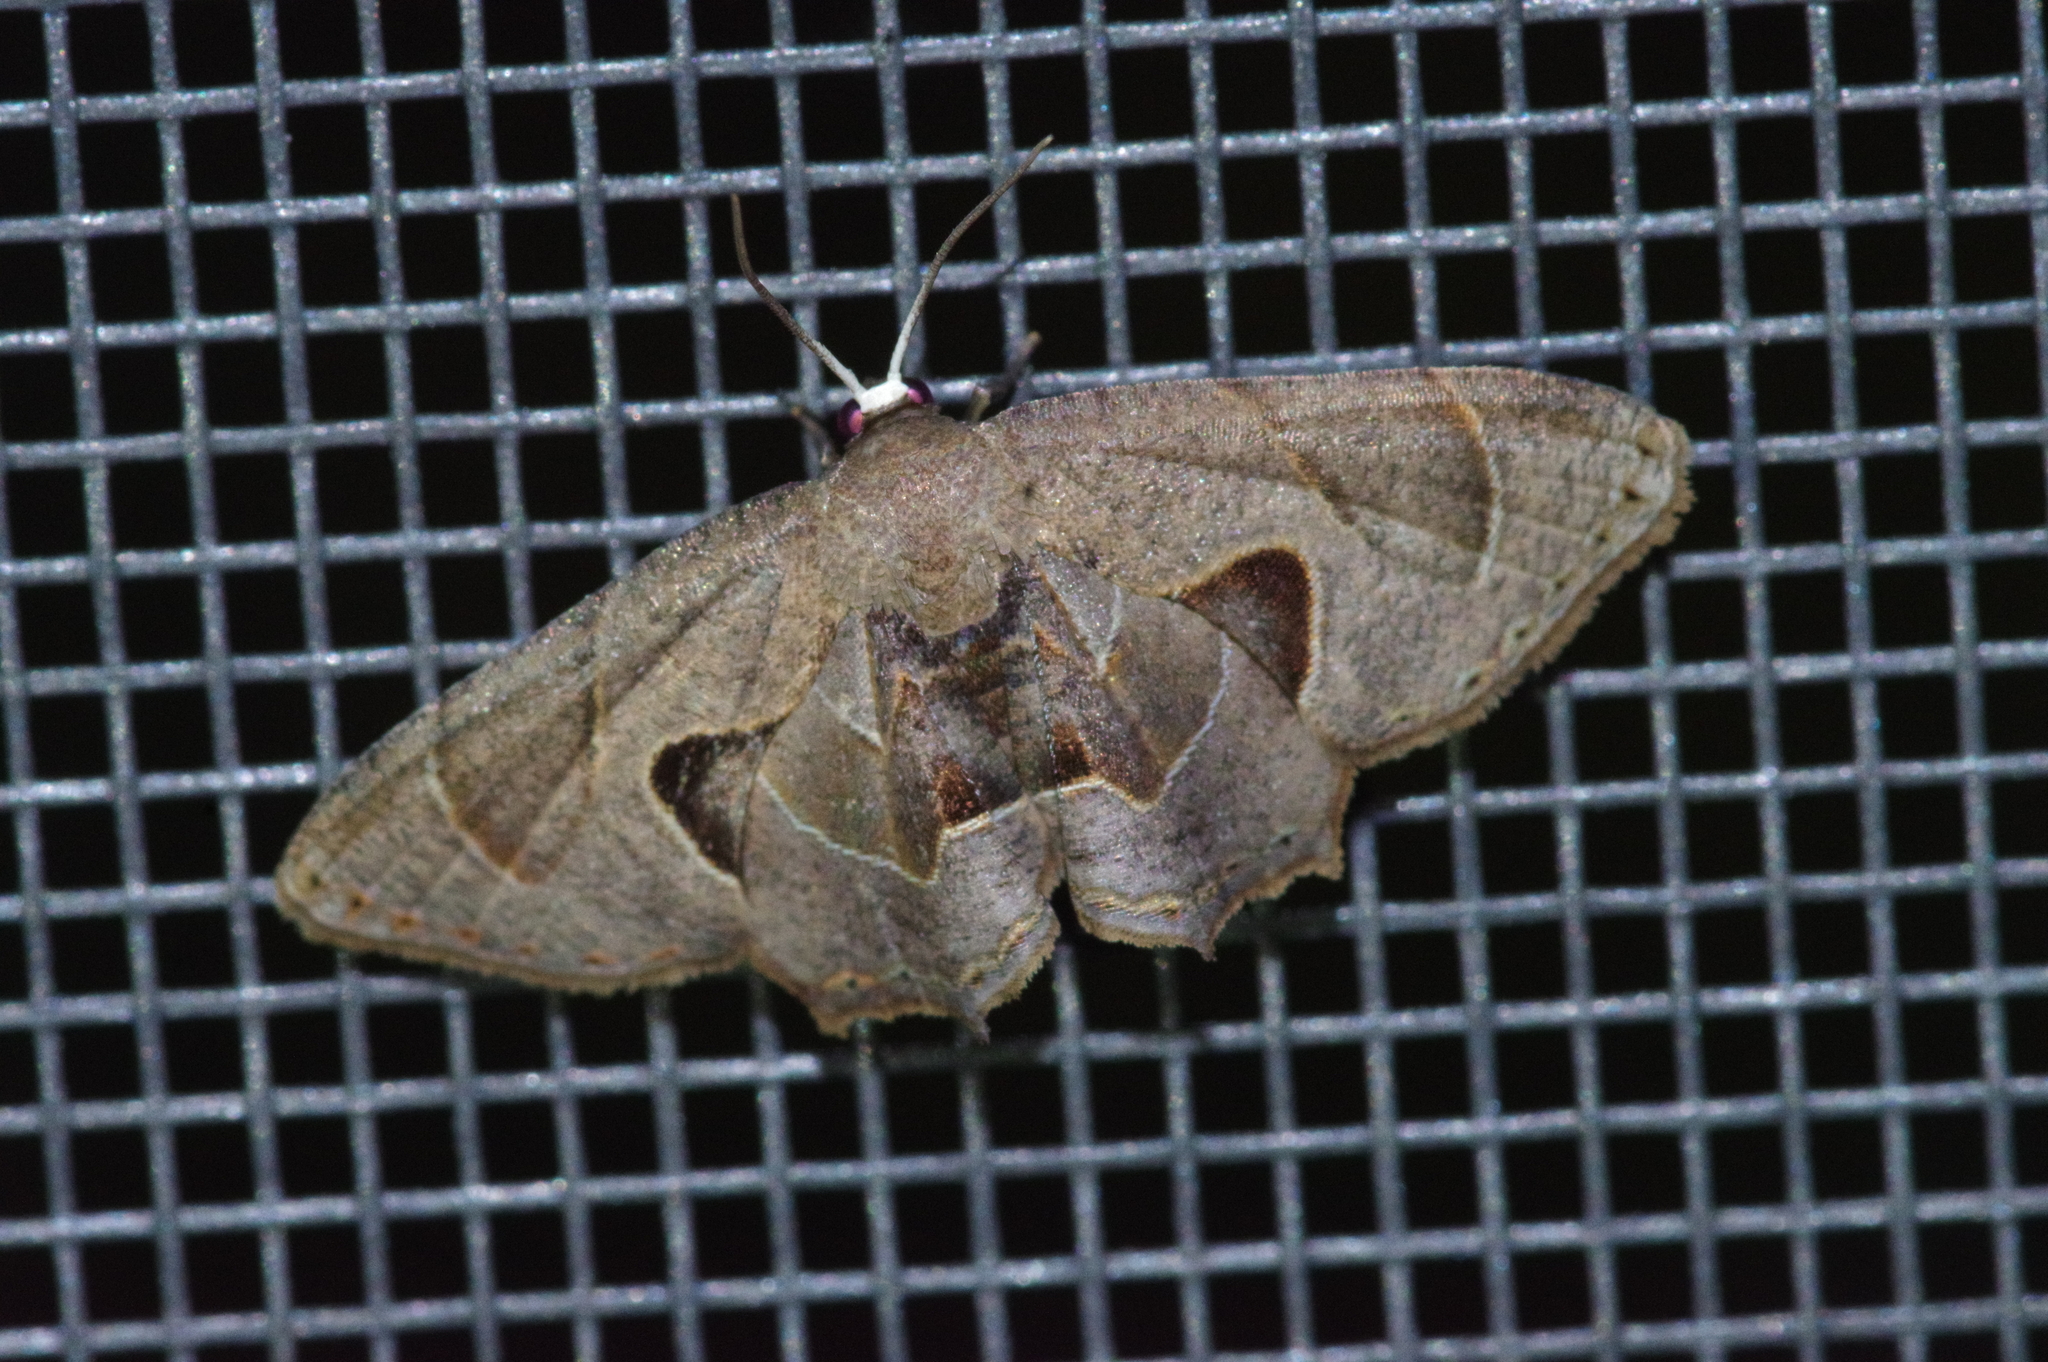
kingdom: Animalia
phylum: Arthropoda
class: Insecta
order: Lepidoptera
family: Uraniidae
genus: Phazaca
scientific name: Phazaca kosemponicola
